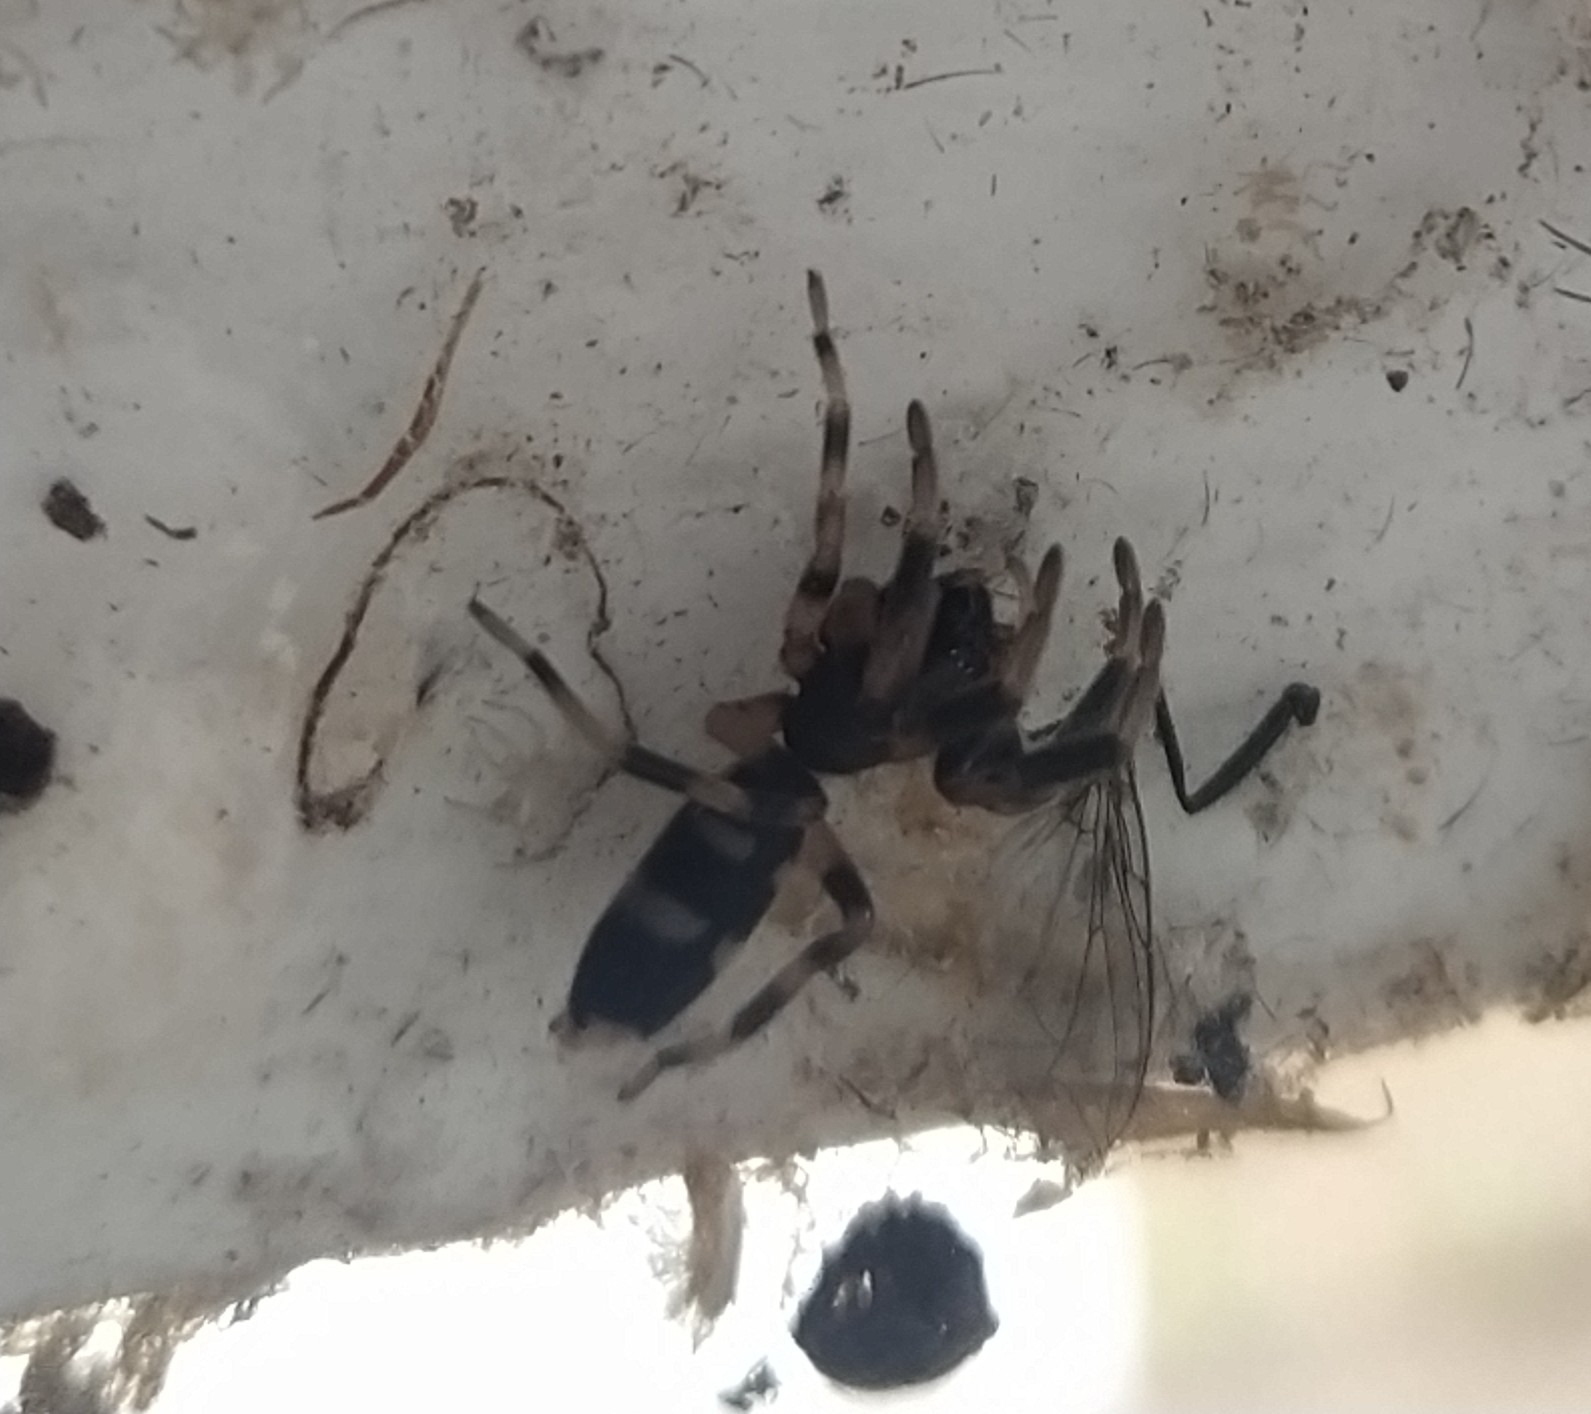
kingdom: Animalia
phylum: Arthropoda
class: Arachnida
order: Araneae
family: Lamponidae
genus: Lampona
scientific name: Lampona murina
